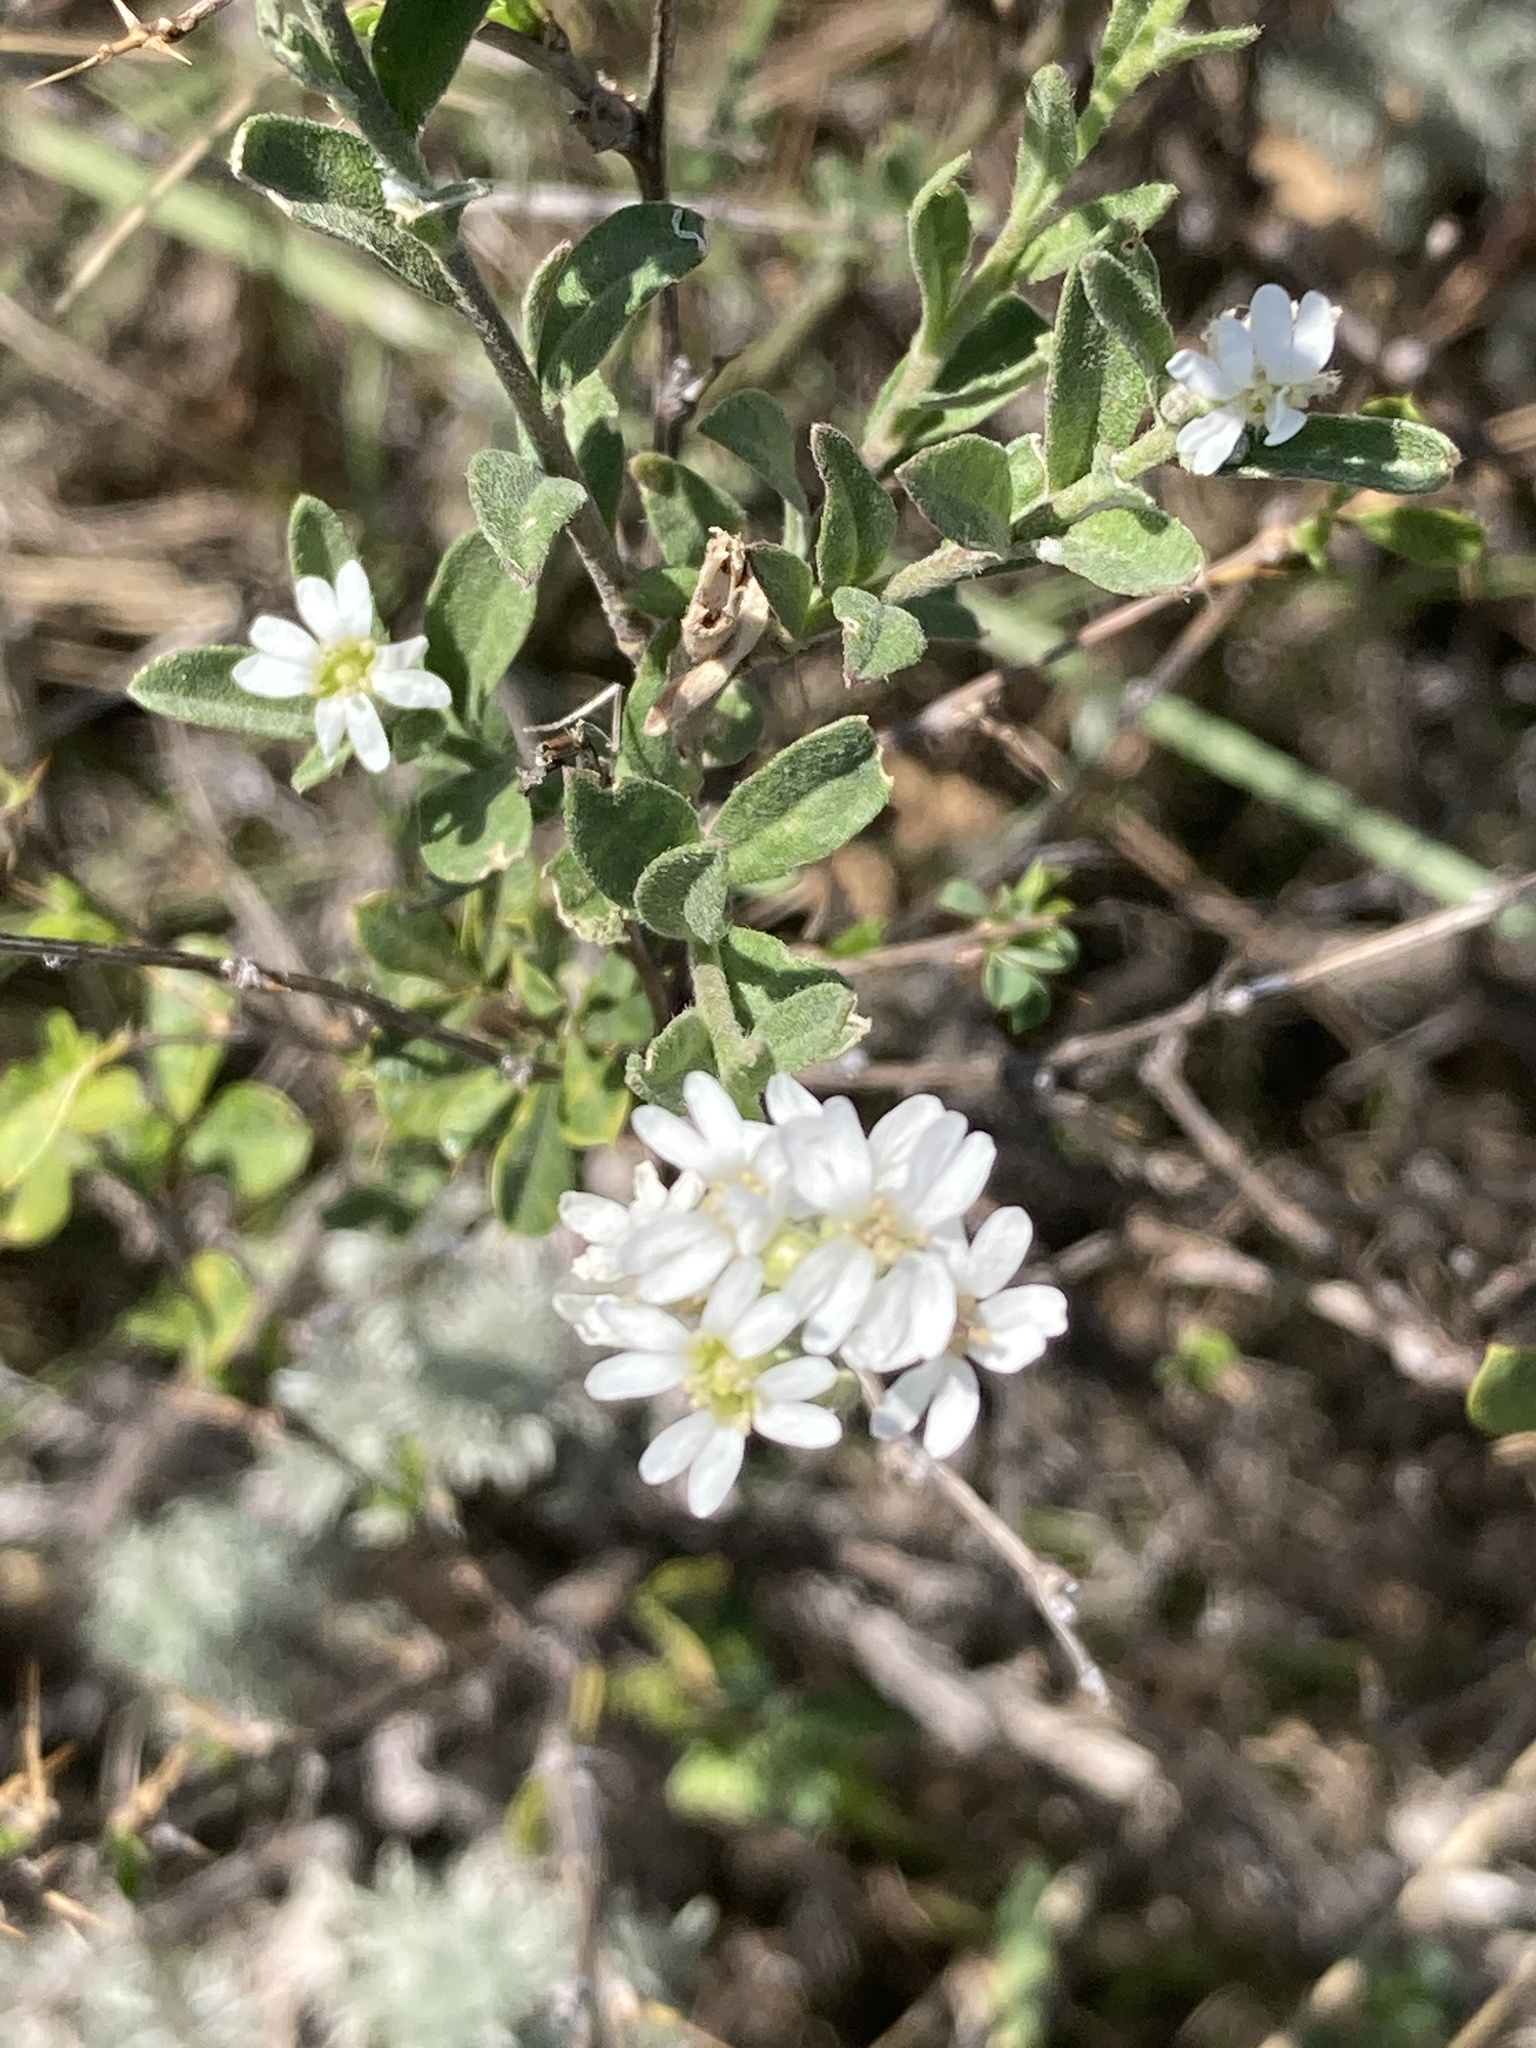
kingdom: Plantae
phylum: Tracheophyta
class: Magnoliopsida
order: Brassicales
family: Brassicaceae
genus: Berteroa
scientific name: Berteroa incana
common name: Hoary alison
